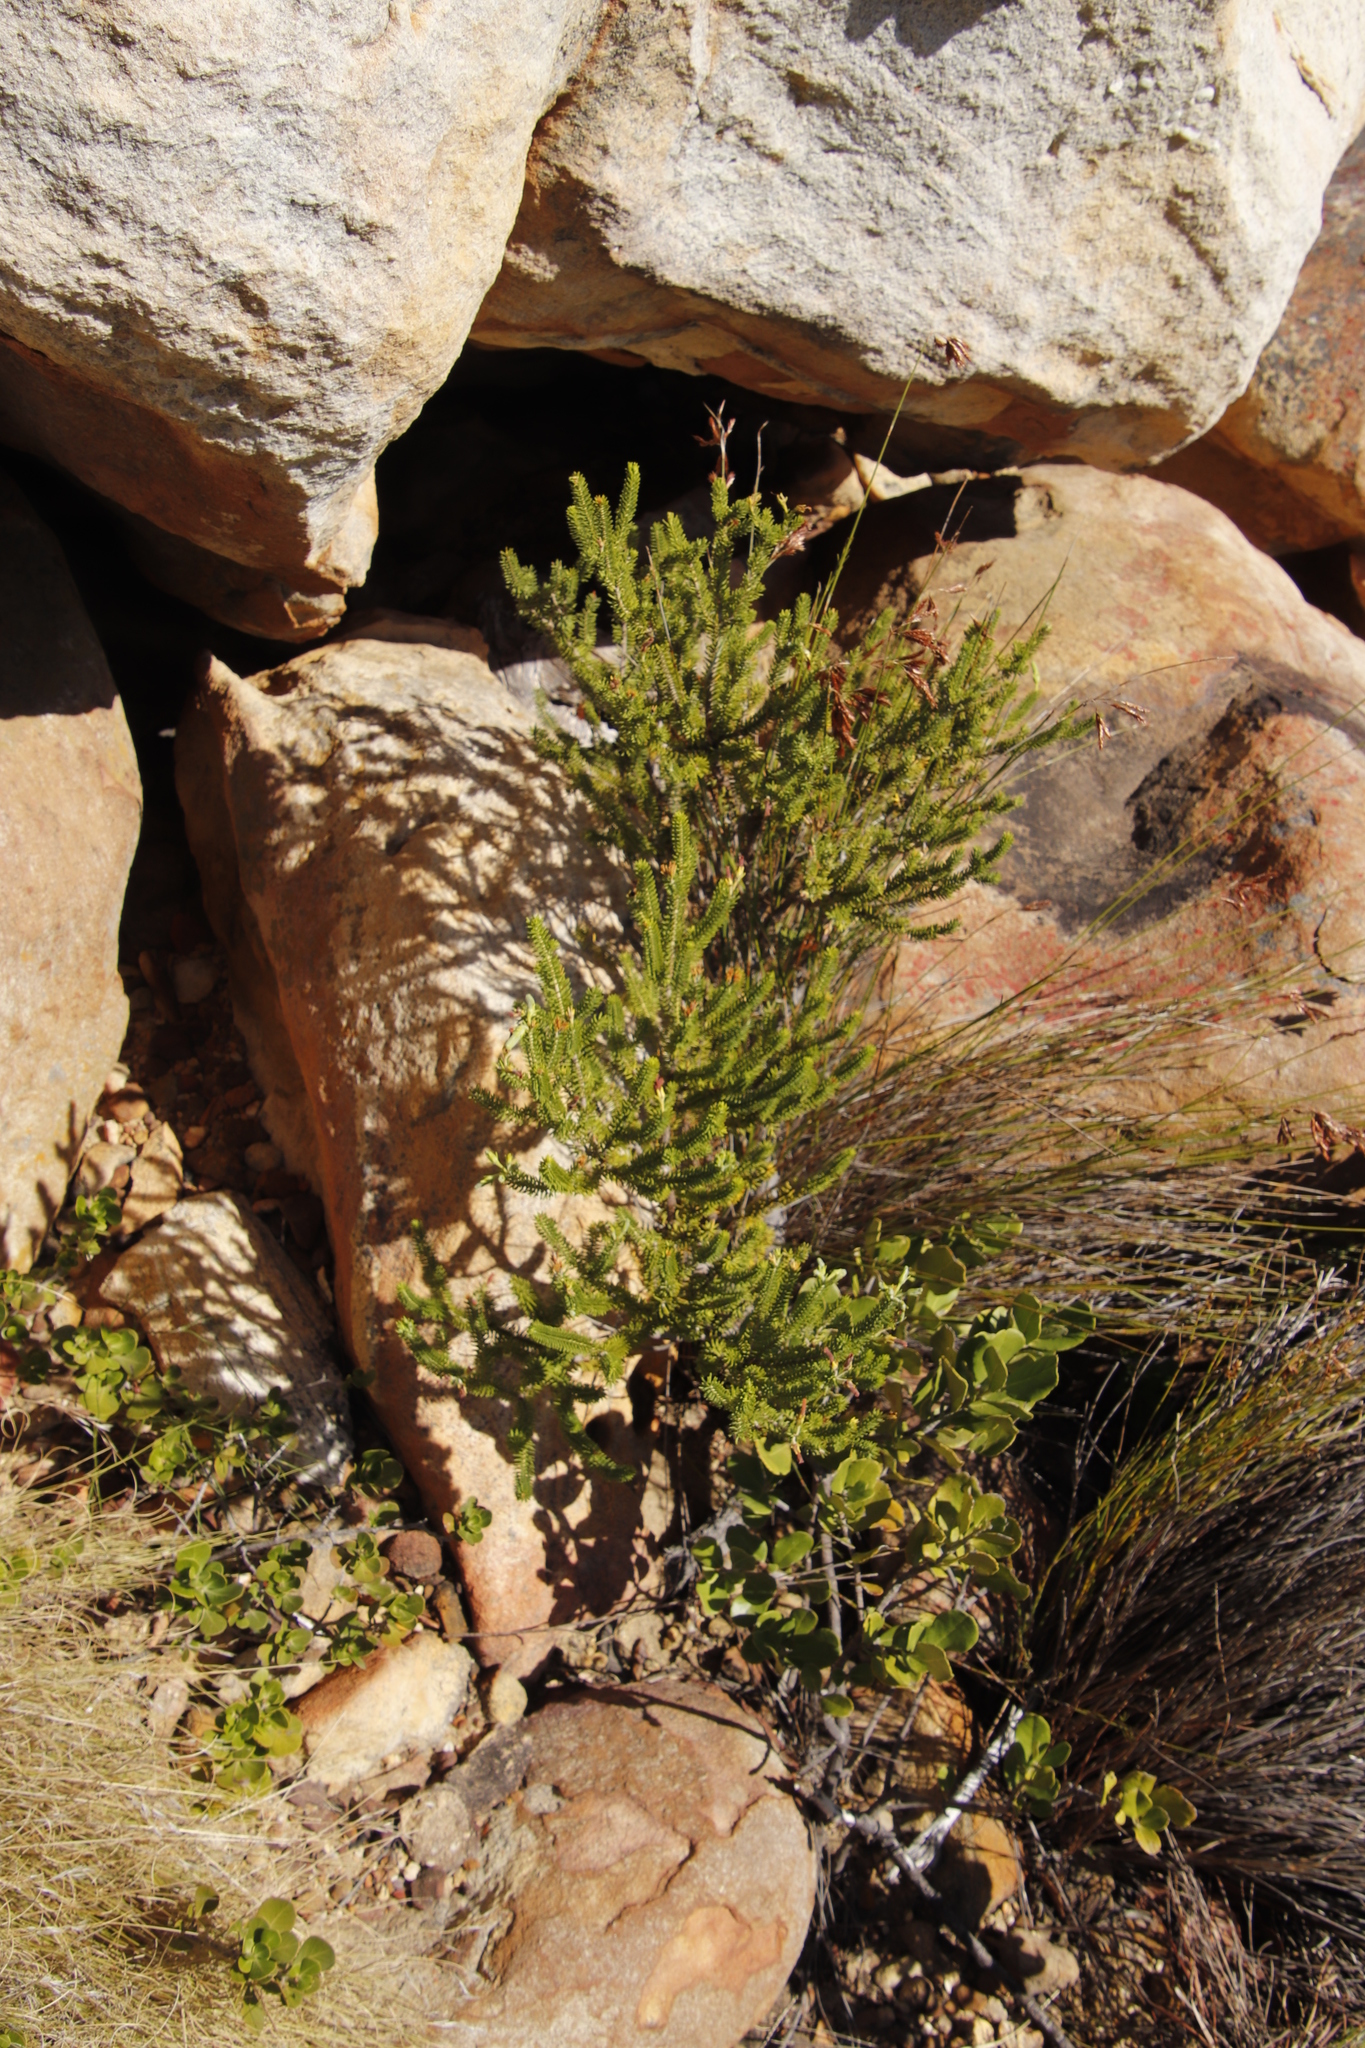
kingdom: Plantae
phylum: Tracheophyta
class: Magnoliopsida
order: Ericales
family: Ericaceae
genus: Erica
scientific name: Erica brachialis
